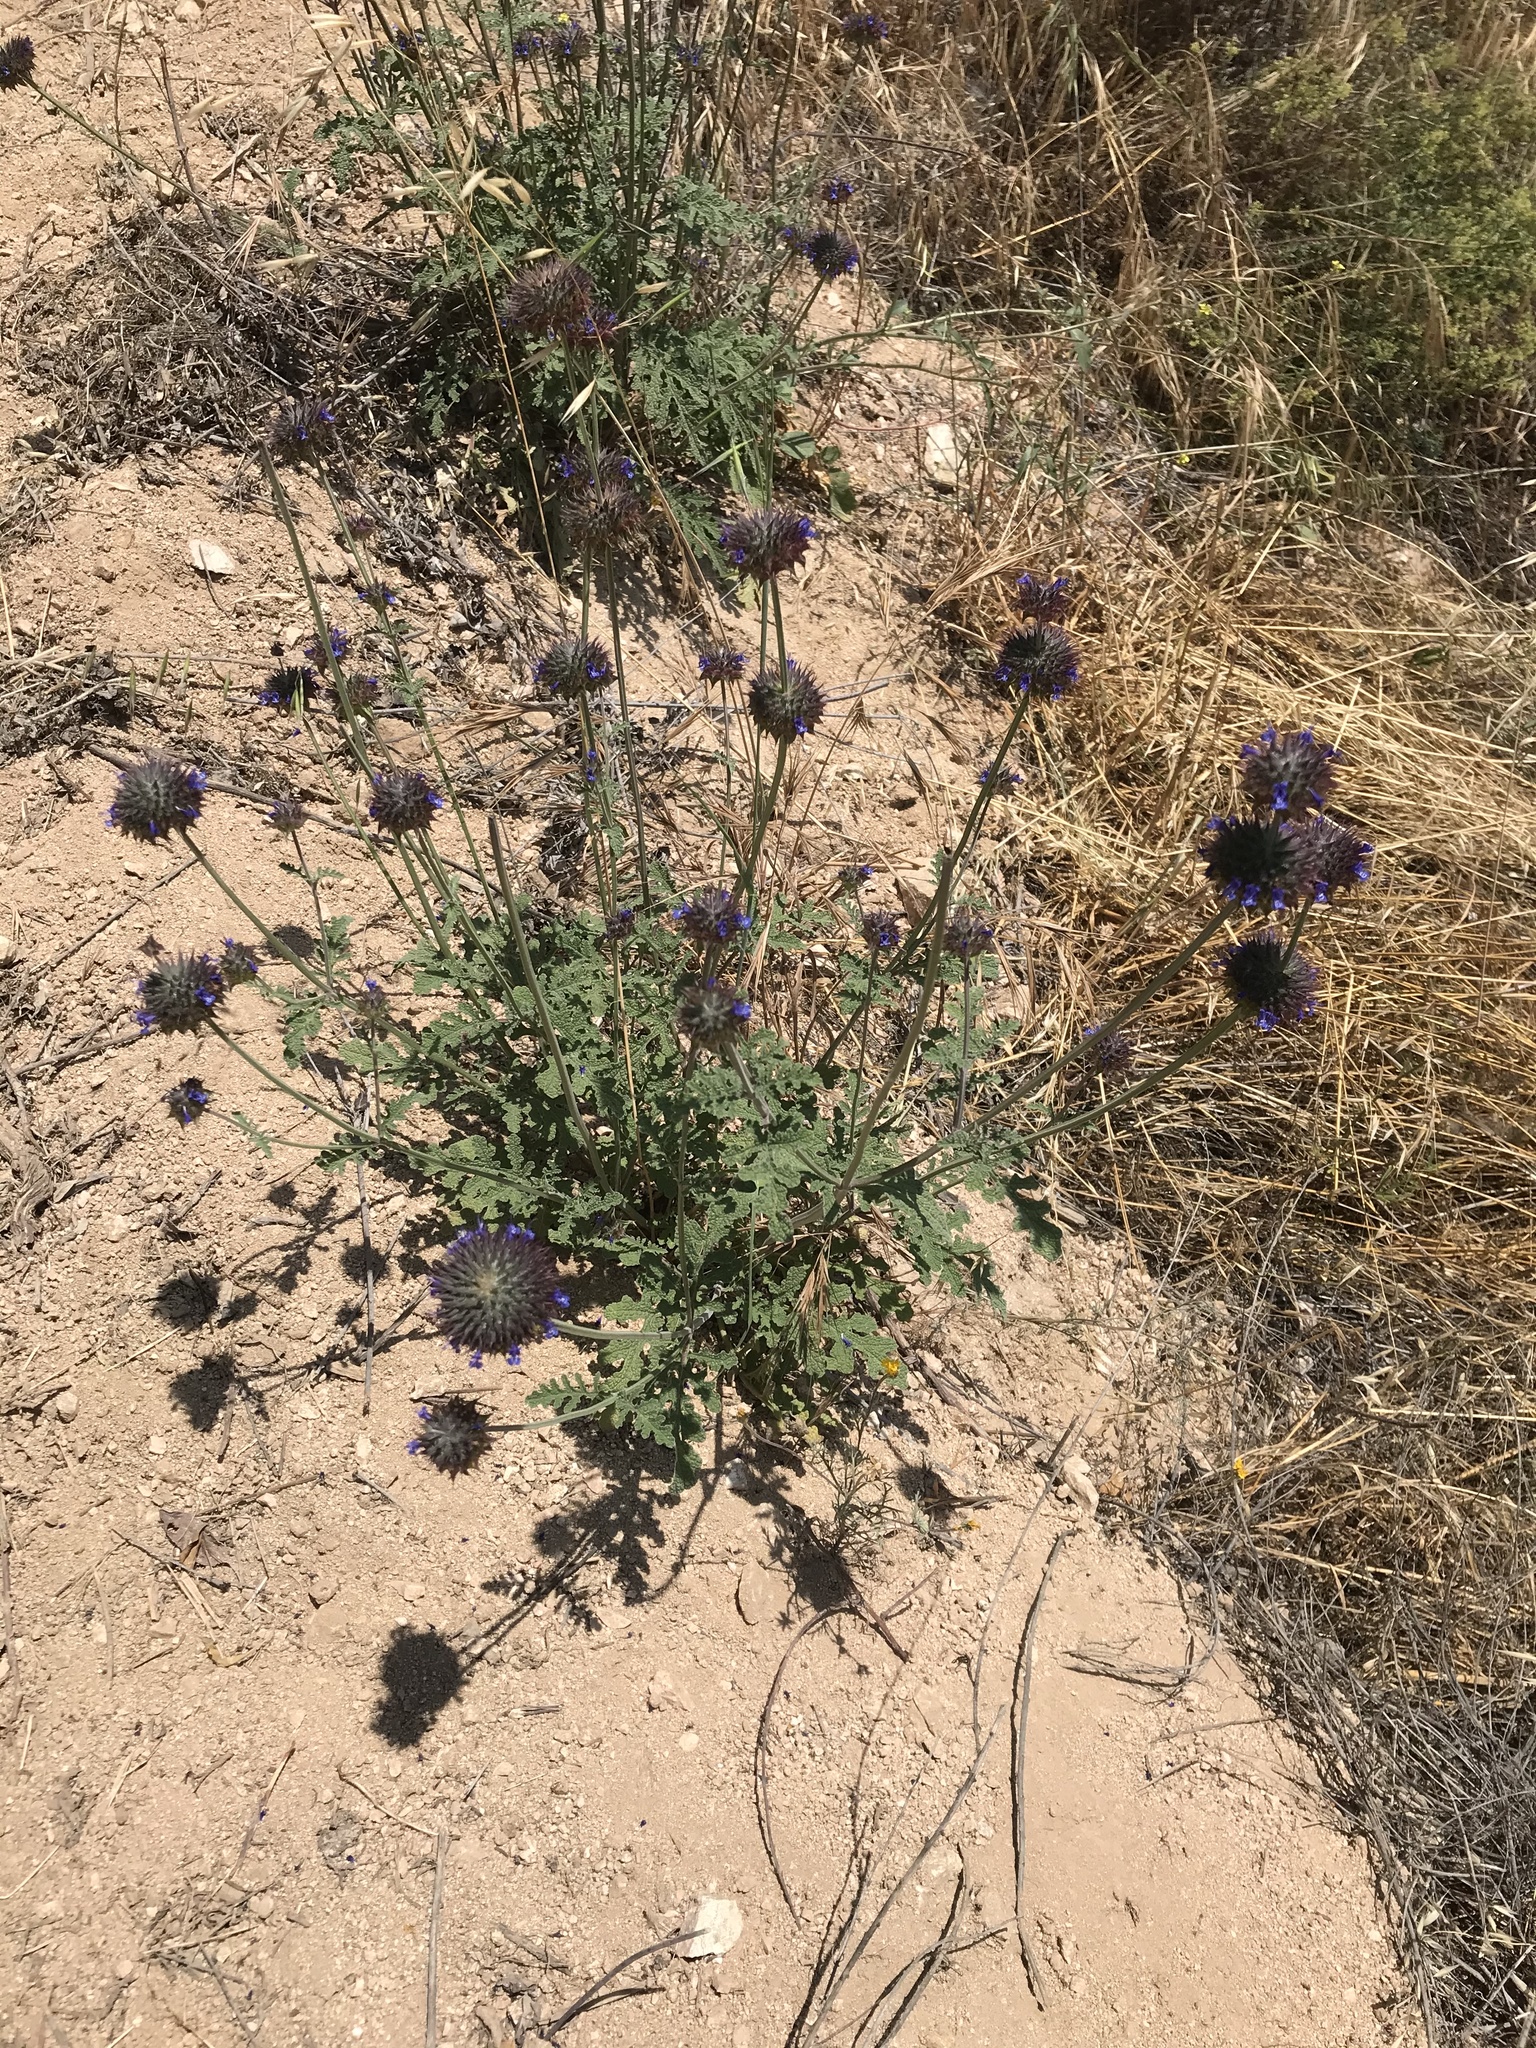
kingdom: Plantae
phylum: Tracheophyta
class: Magnoliopsida
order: Lamiales
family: Lamiaceae
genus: Salvia
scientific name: Salvia columbariae
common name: Chia
